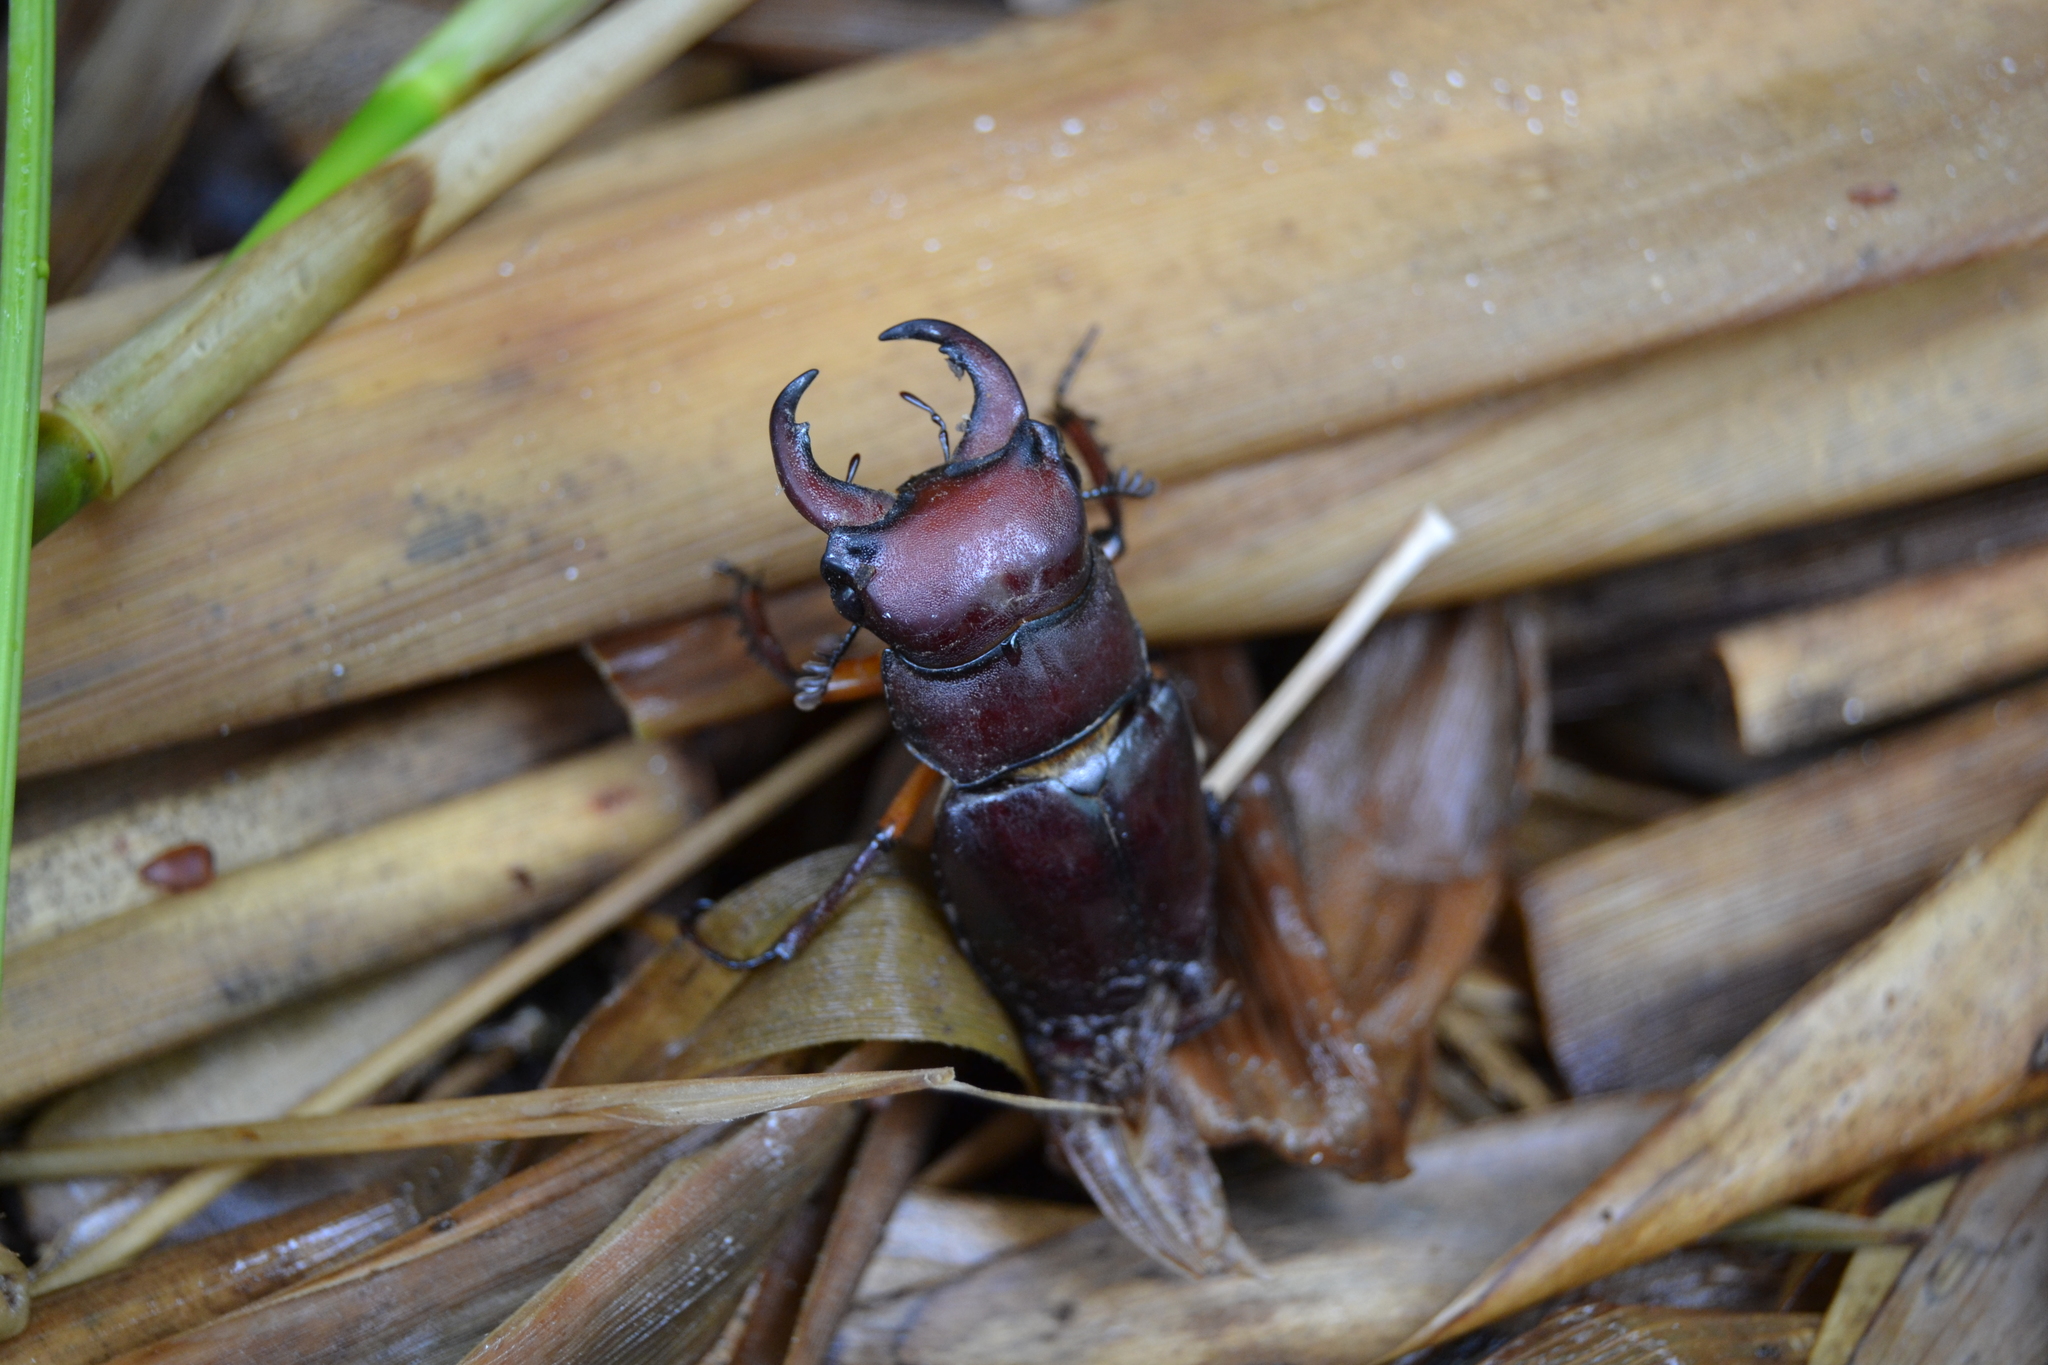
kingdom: Animalia
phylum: Arthropoda
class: Insecta
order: Coleoptera
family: Lucanidae
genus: Lucanus
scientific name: Lucanus capreolus
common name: Stag beetle
